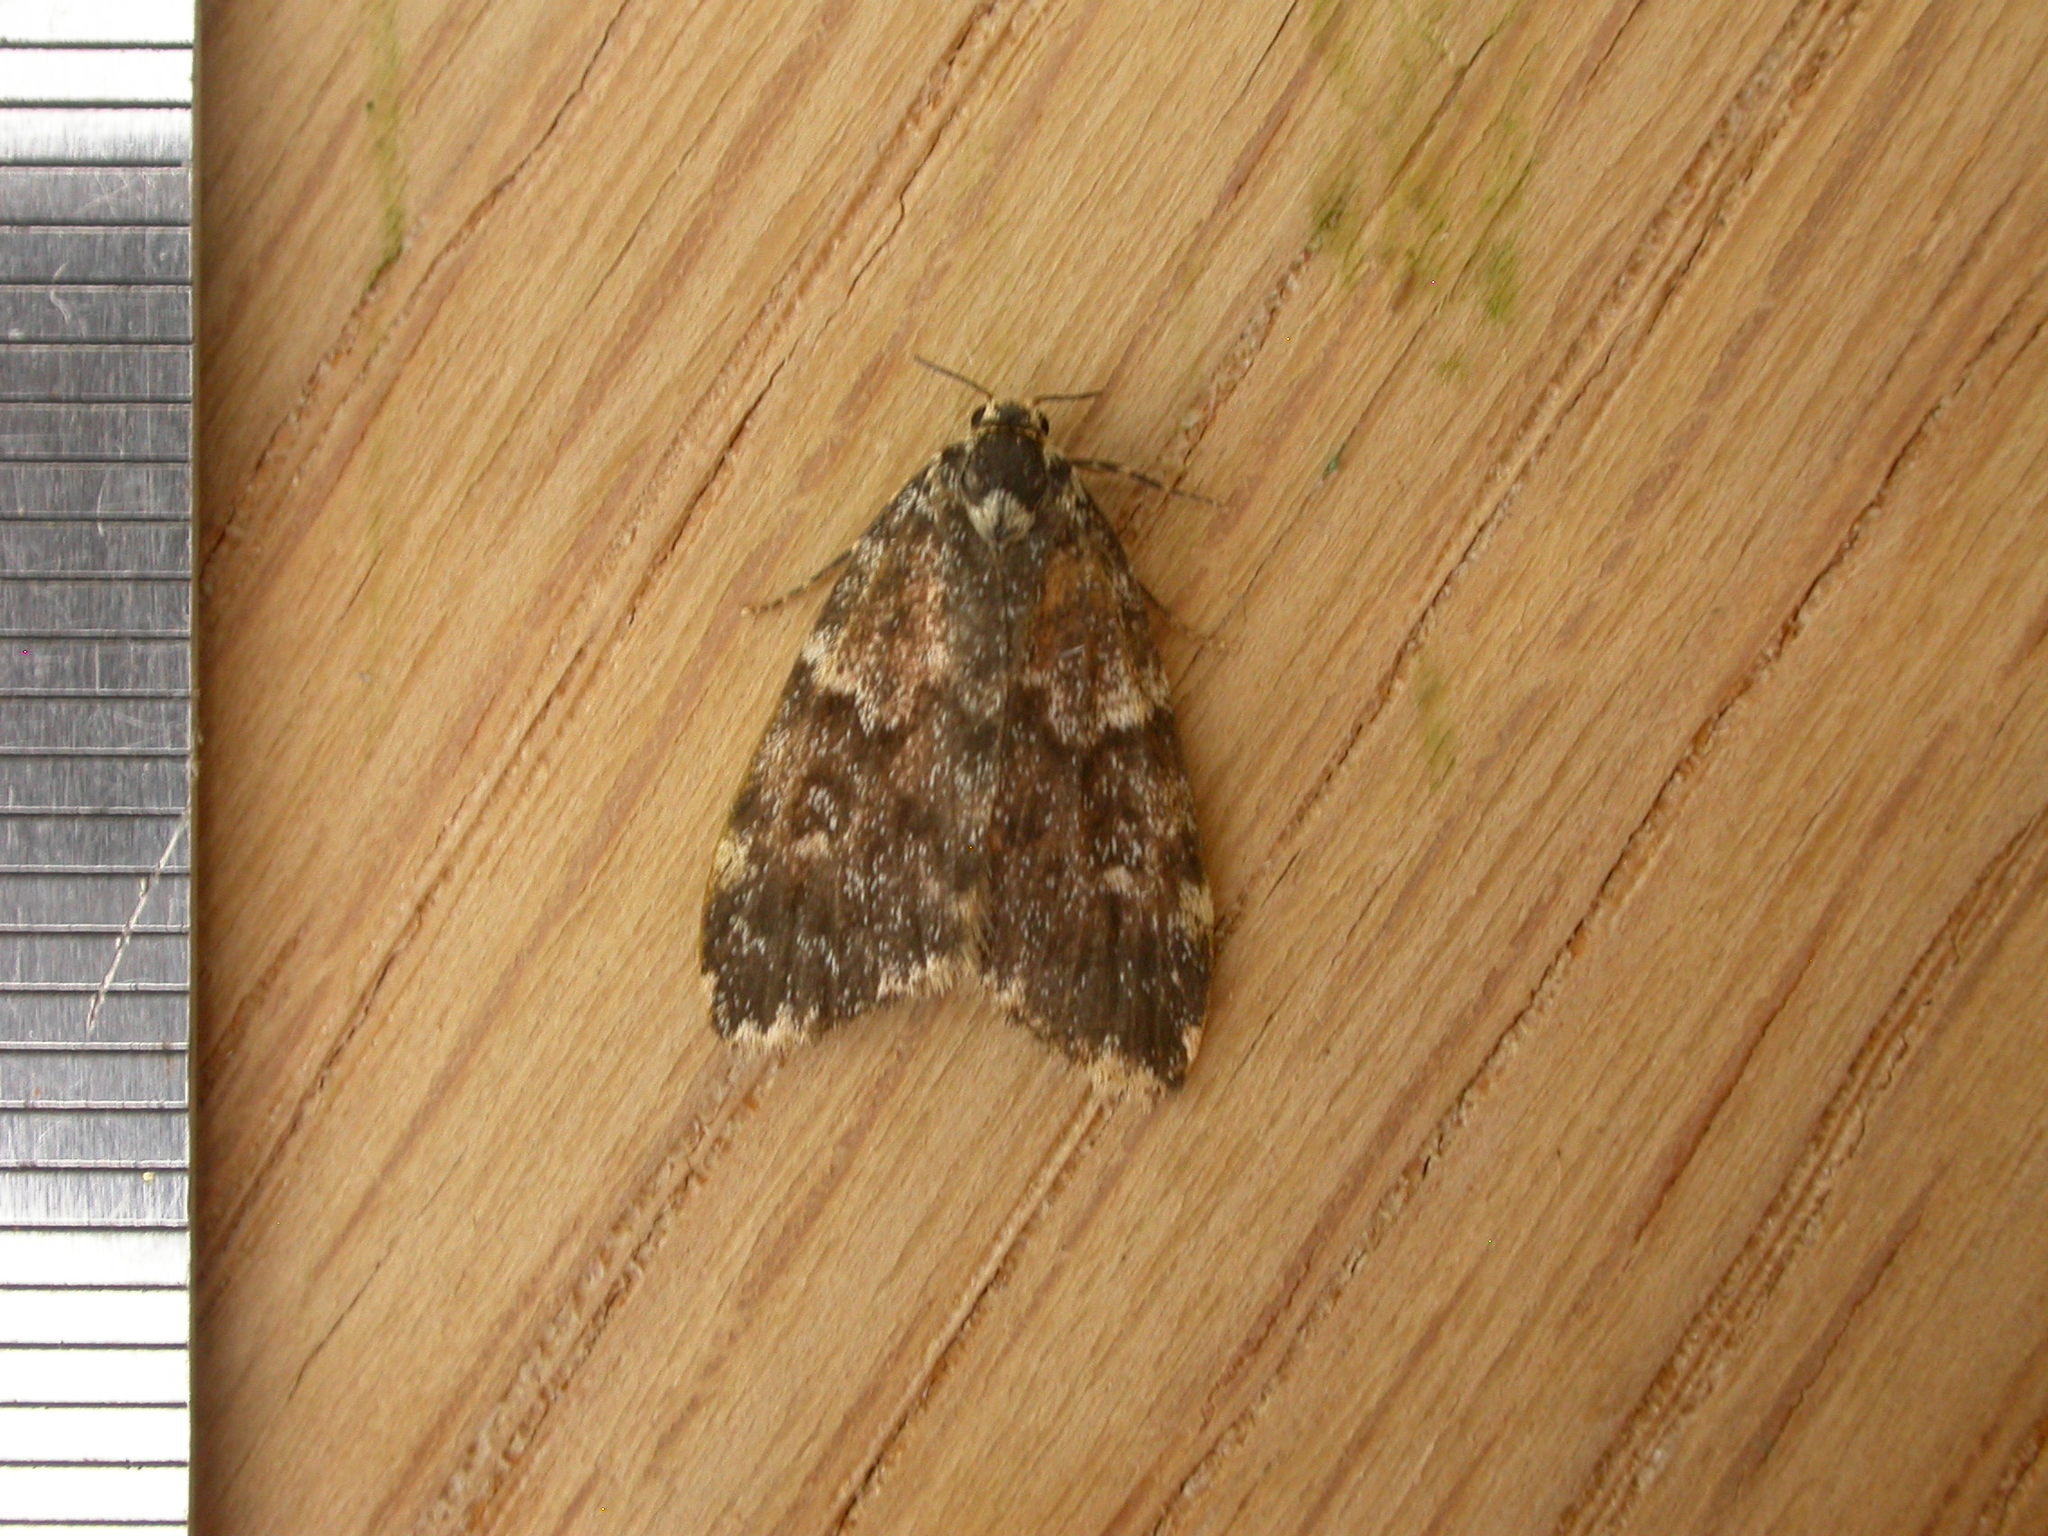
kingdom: Animalia
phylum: Arthropoda
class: Insecta
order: Lepidoptera
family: Erebidae
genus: Halone
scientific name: Halone coryphoea
